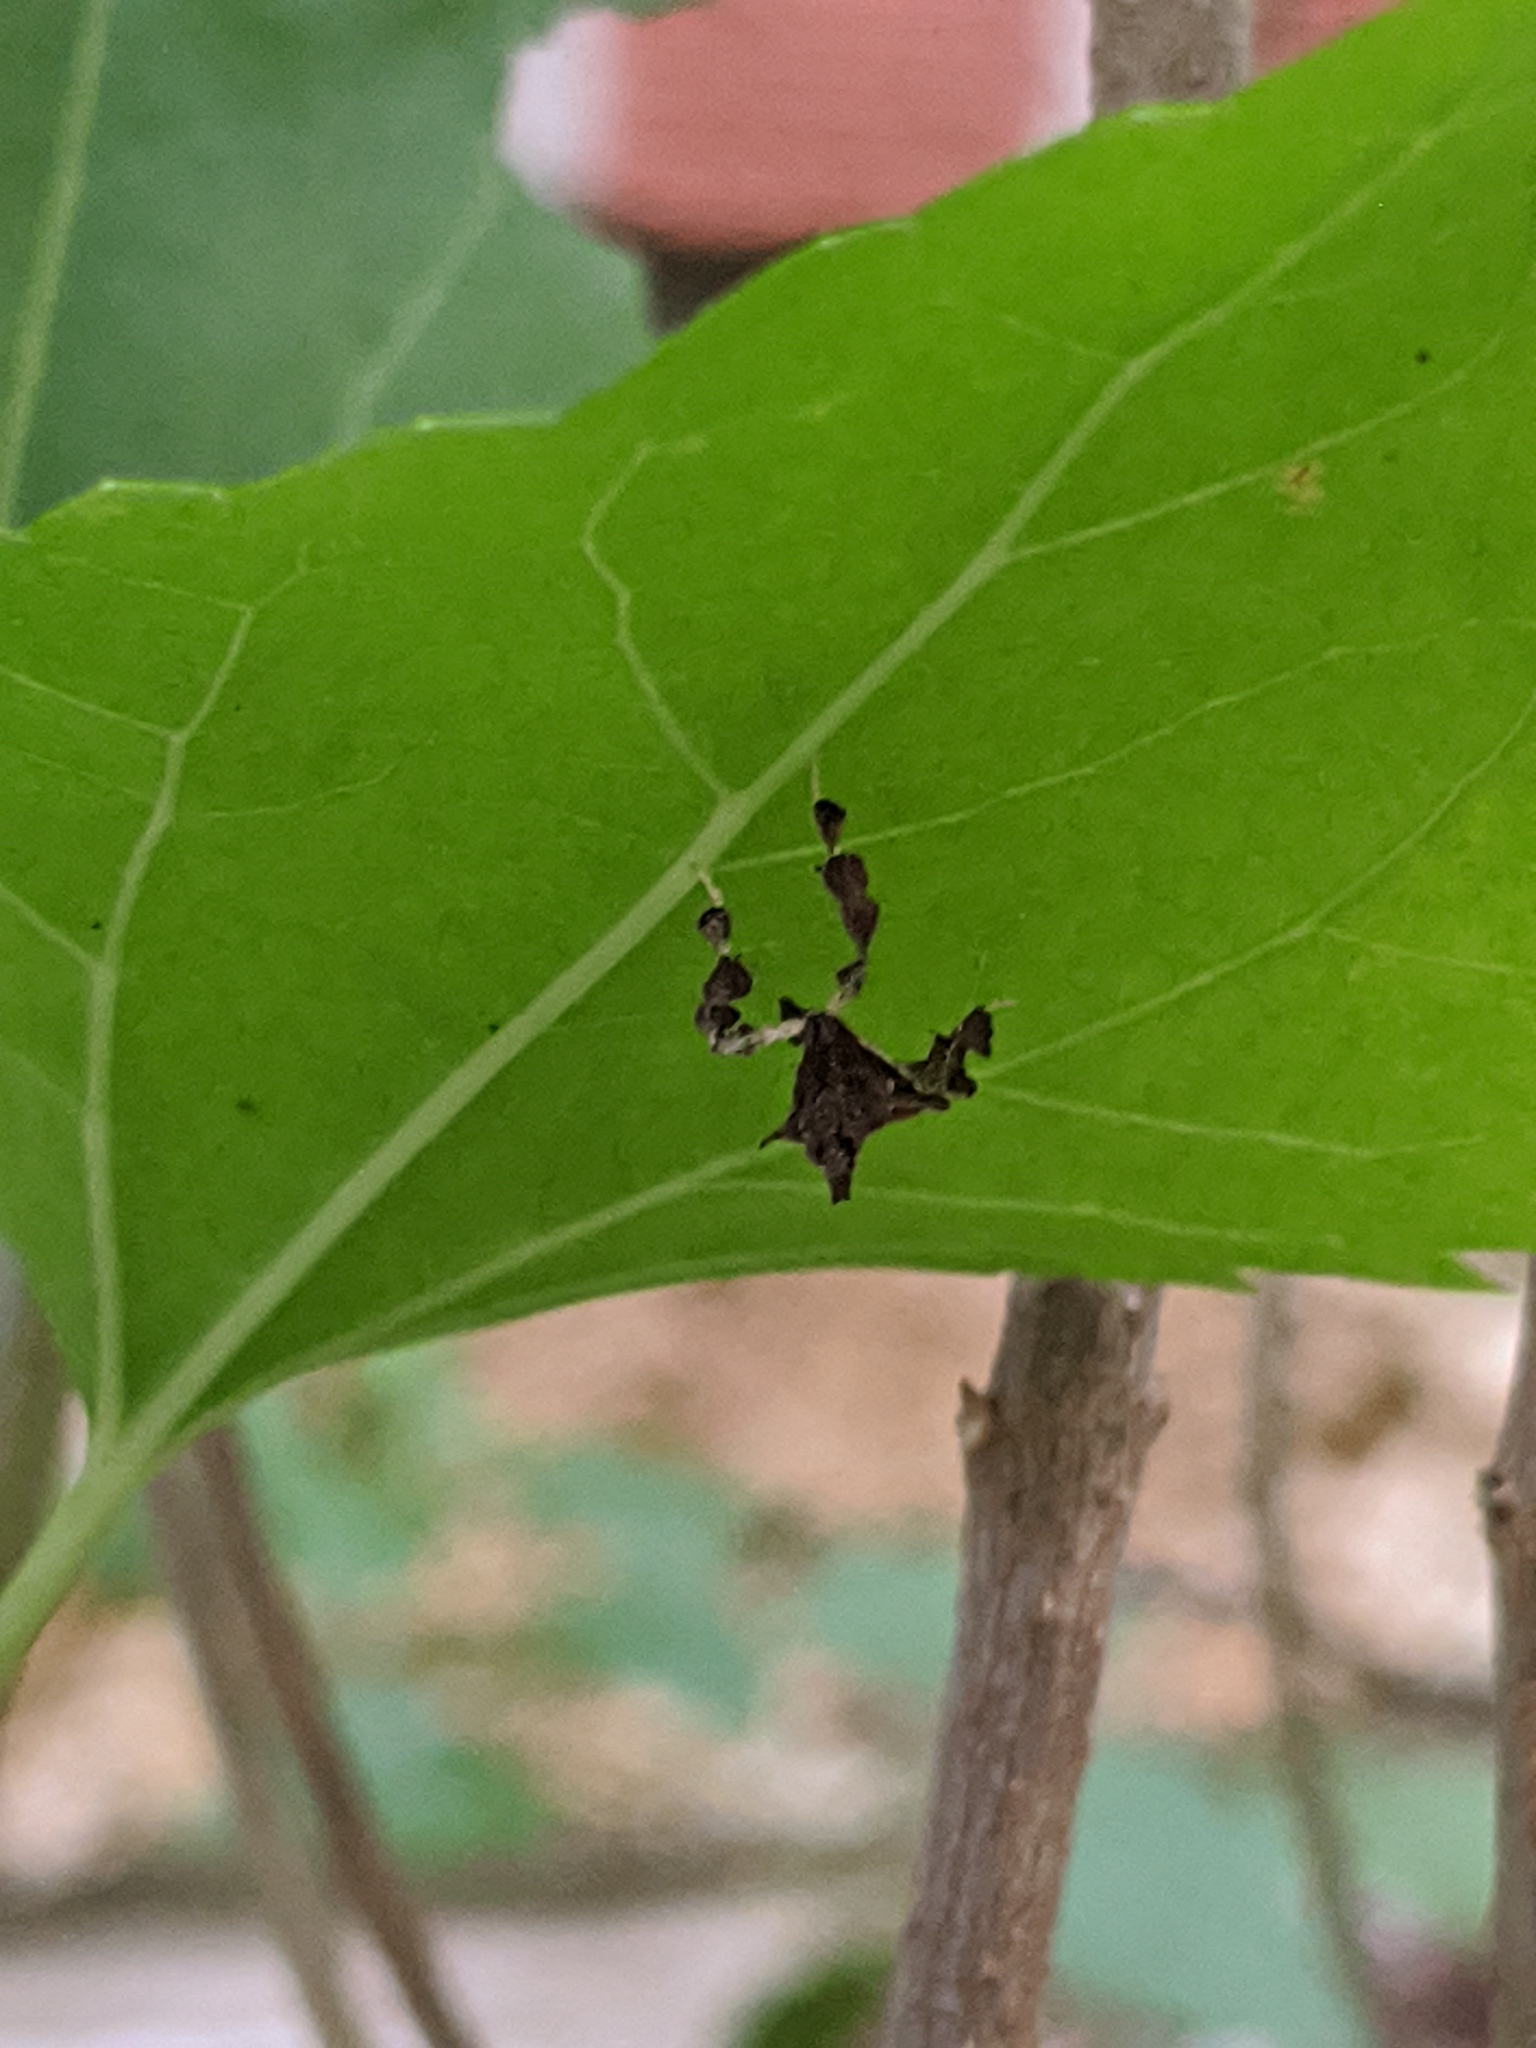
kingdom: Animalia
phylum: Arthropoda
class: Insecta
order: Lepidoptera
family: Pyralidae
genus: Galasa
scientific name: Galasa nigrinodis
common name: Boxwood leaftier moth
